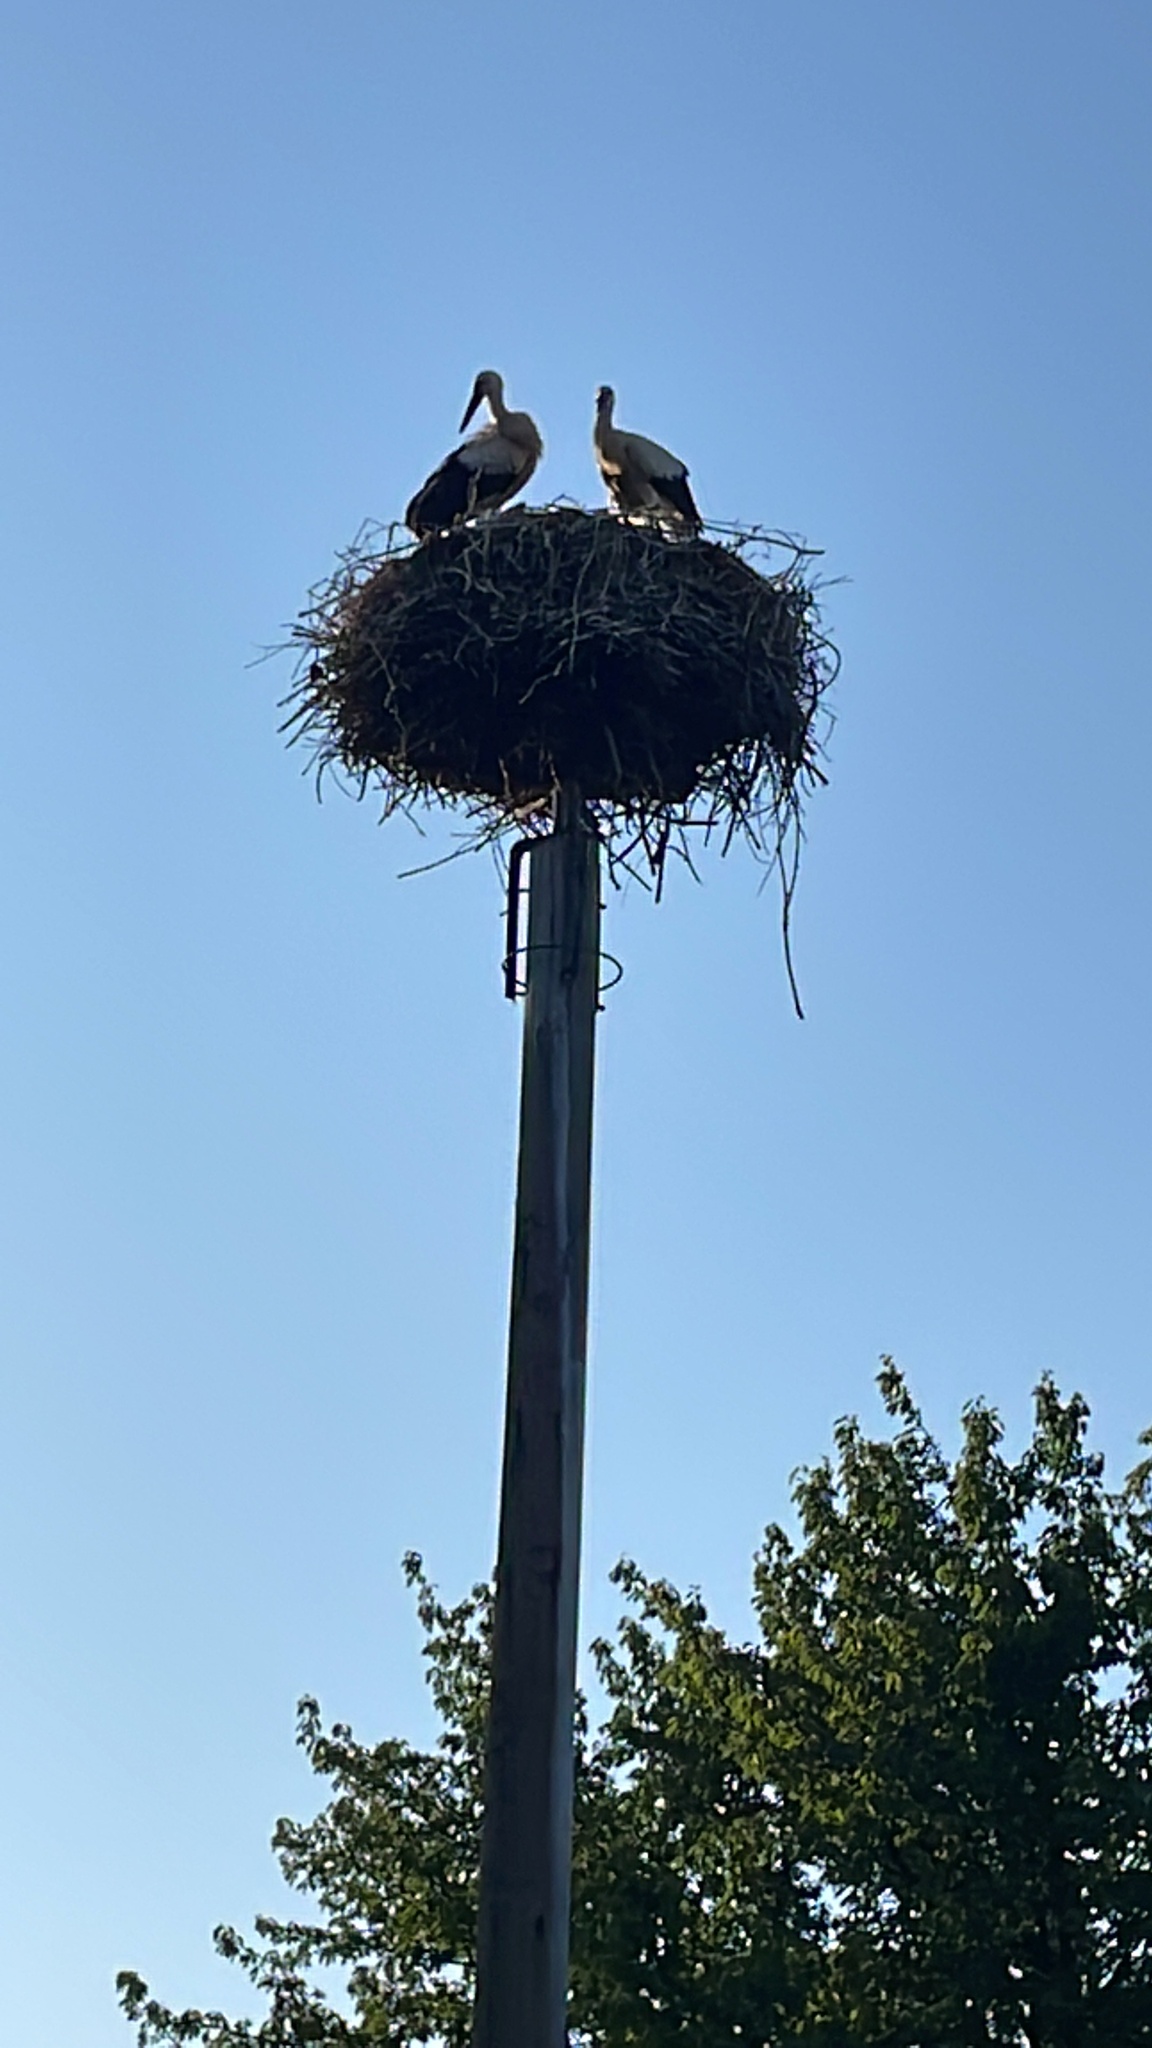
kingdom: Animalia
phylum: Chordata
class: Aves
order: Ciconiiformes
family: Ciconiidae
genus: Ciconia
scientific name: Ciconia ciconia
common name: White stork
